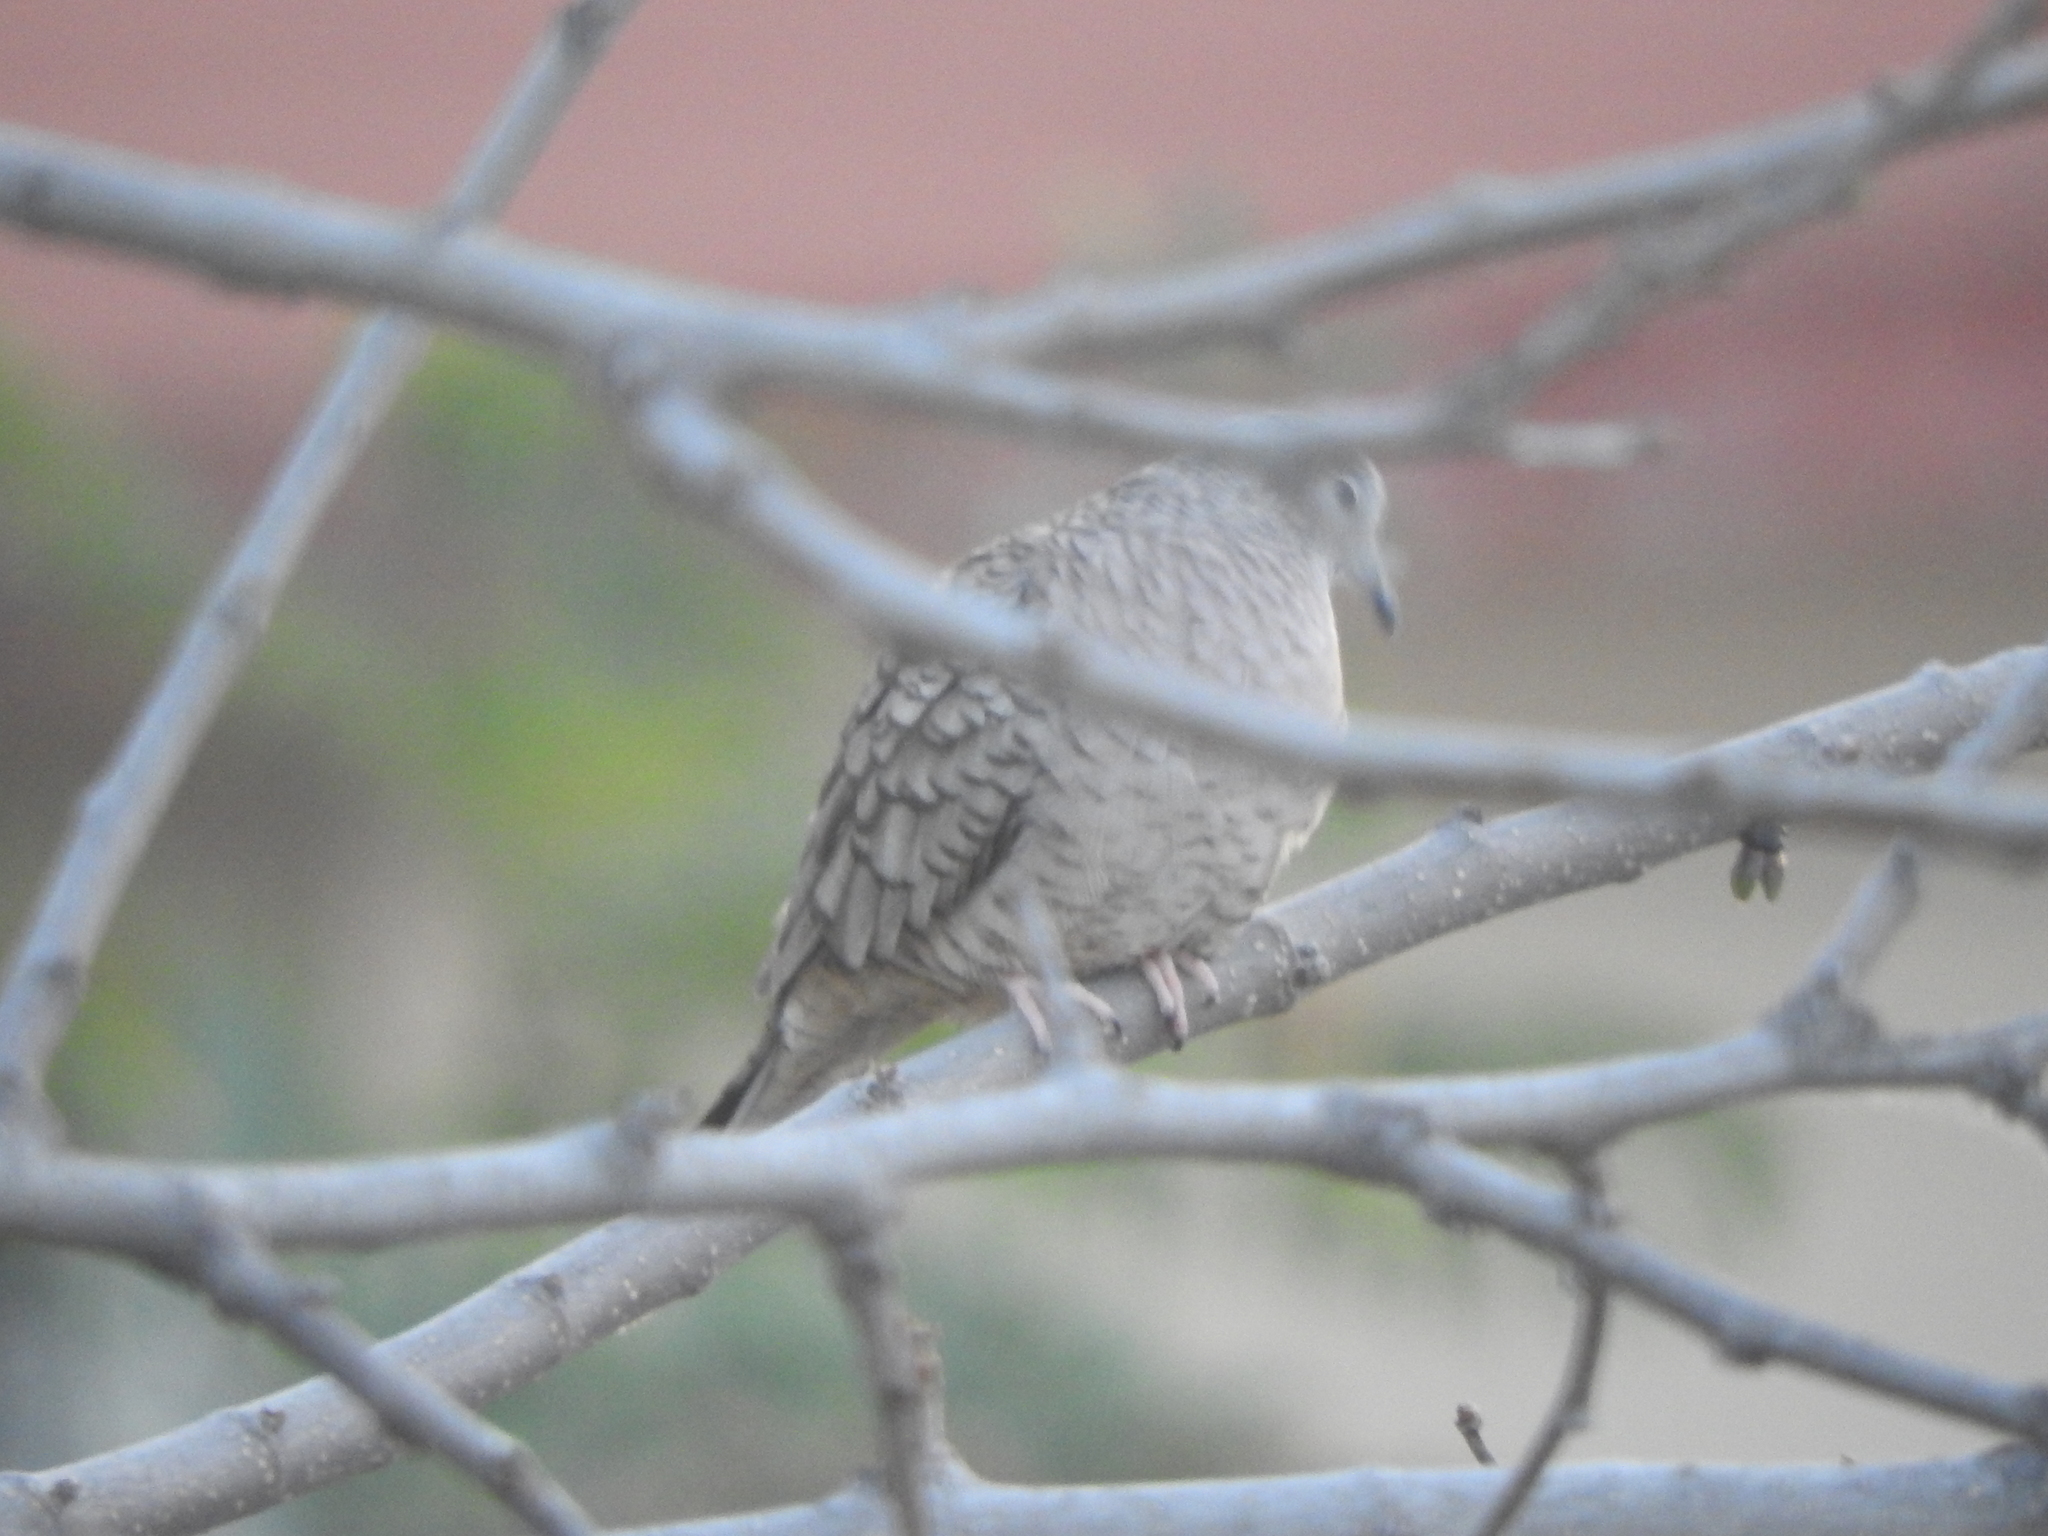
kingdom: Animalia
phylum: Chordata
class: Aves
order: Columbiformes
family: Columbidae
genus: Columbina
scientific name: Columbina inca
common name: Inca dove
